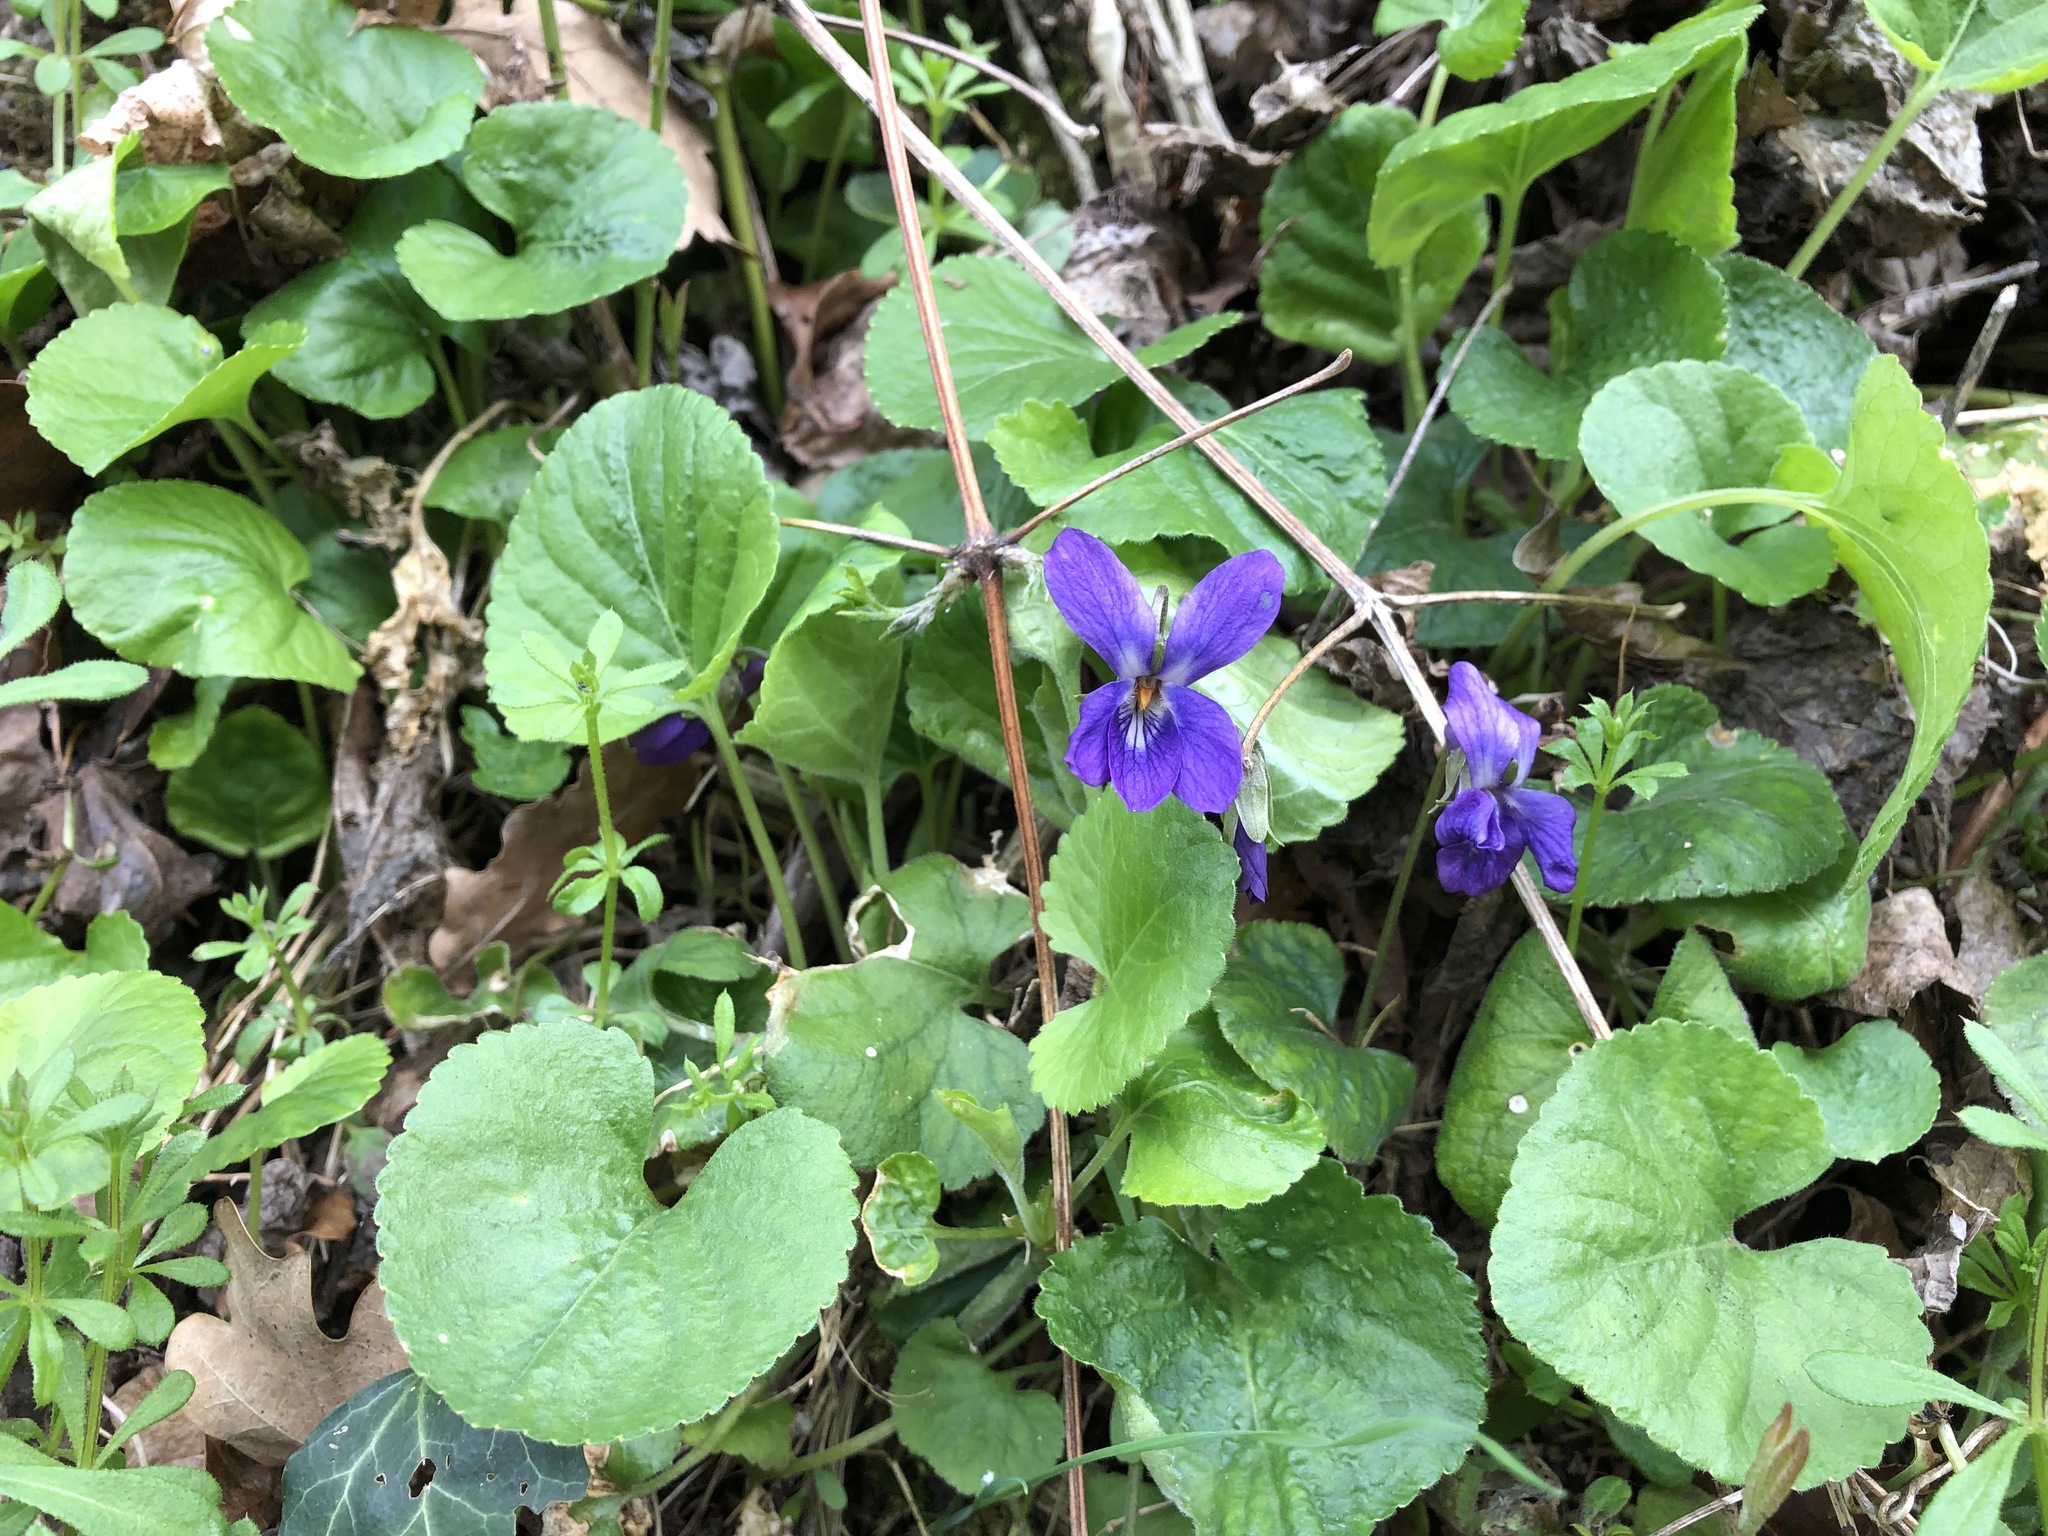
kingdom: Plantae
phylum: Tracheophyta
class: Magnoliopsida
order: Malpighiales
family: Violaceae
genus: Viola
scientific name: Viola reichenbachiana
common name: Early dog-violet
